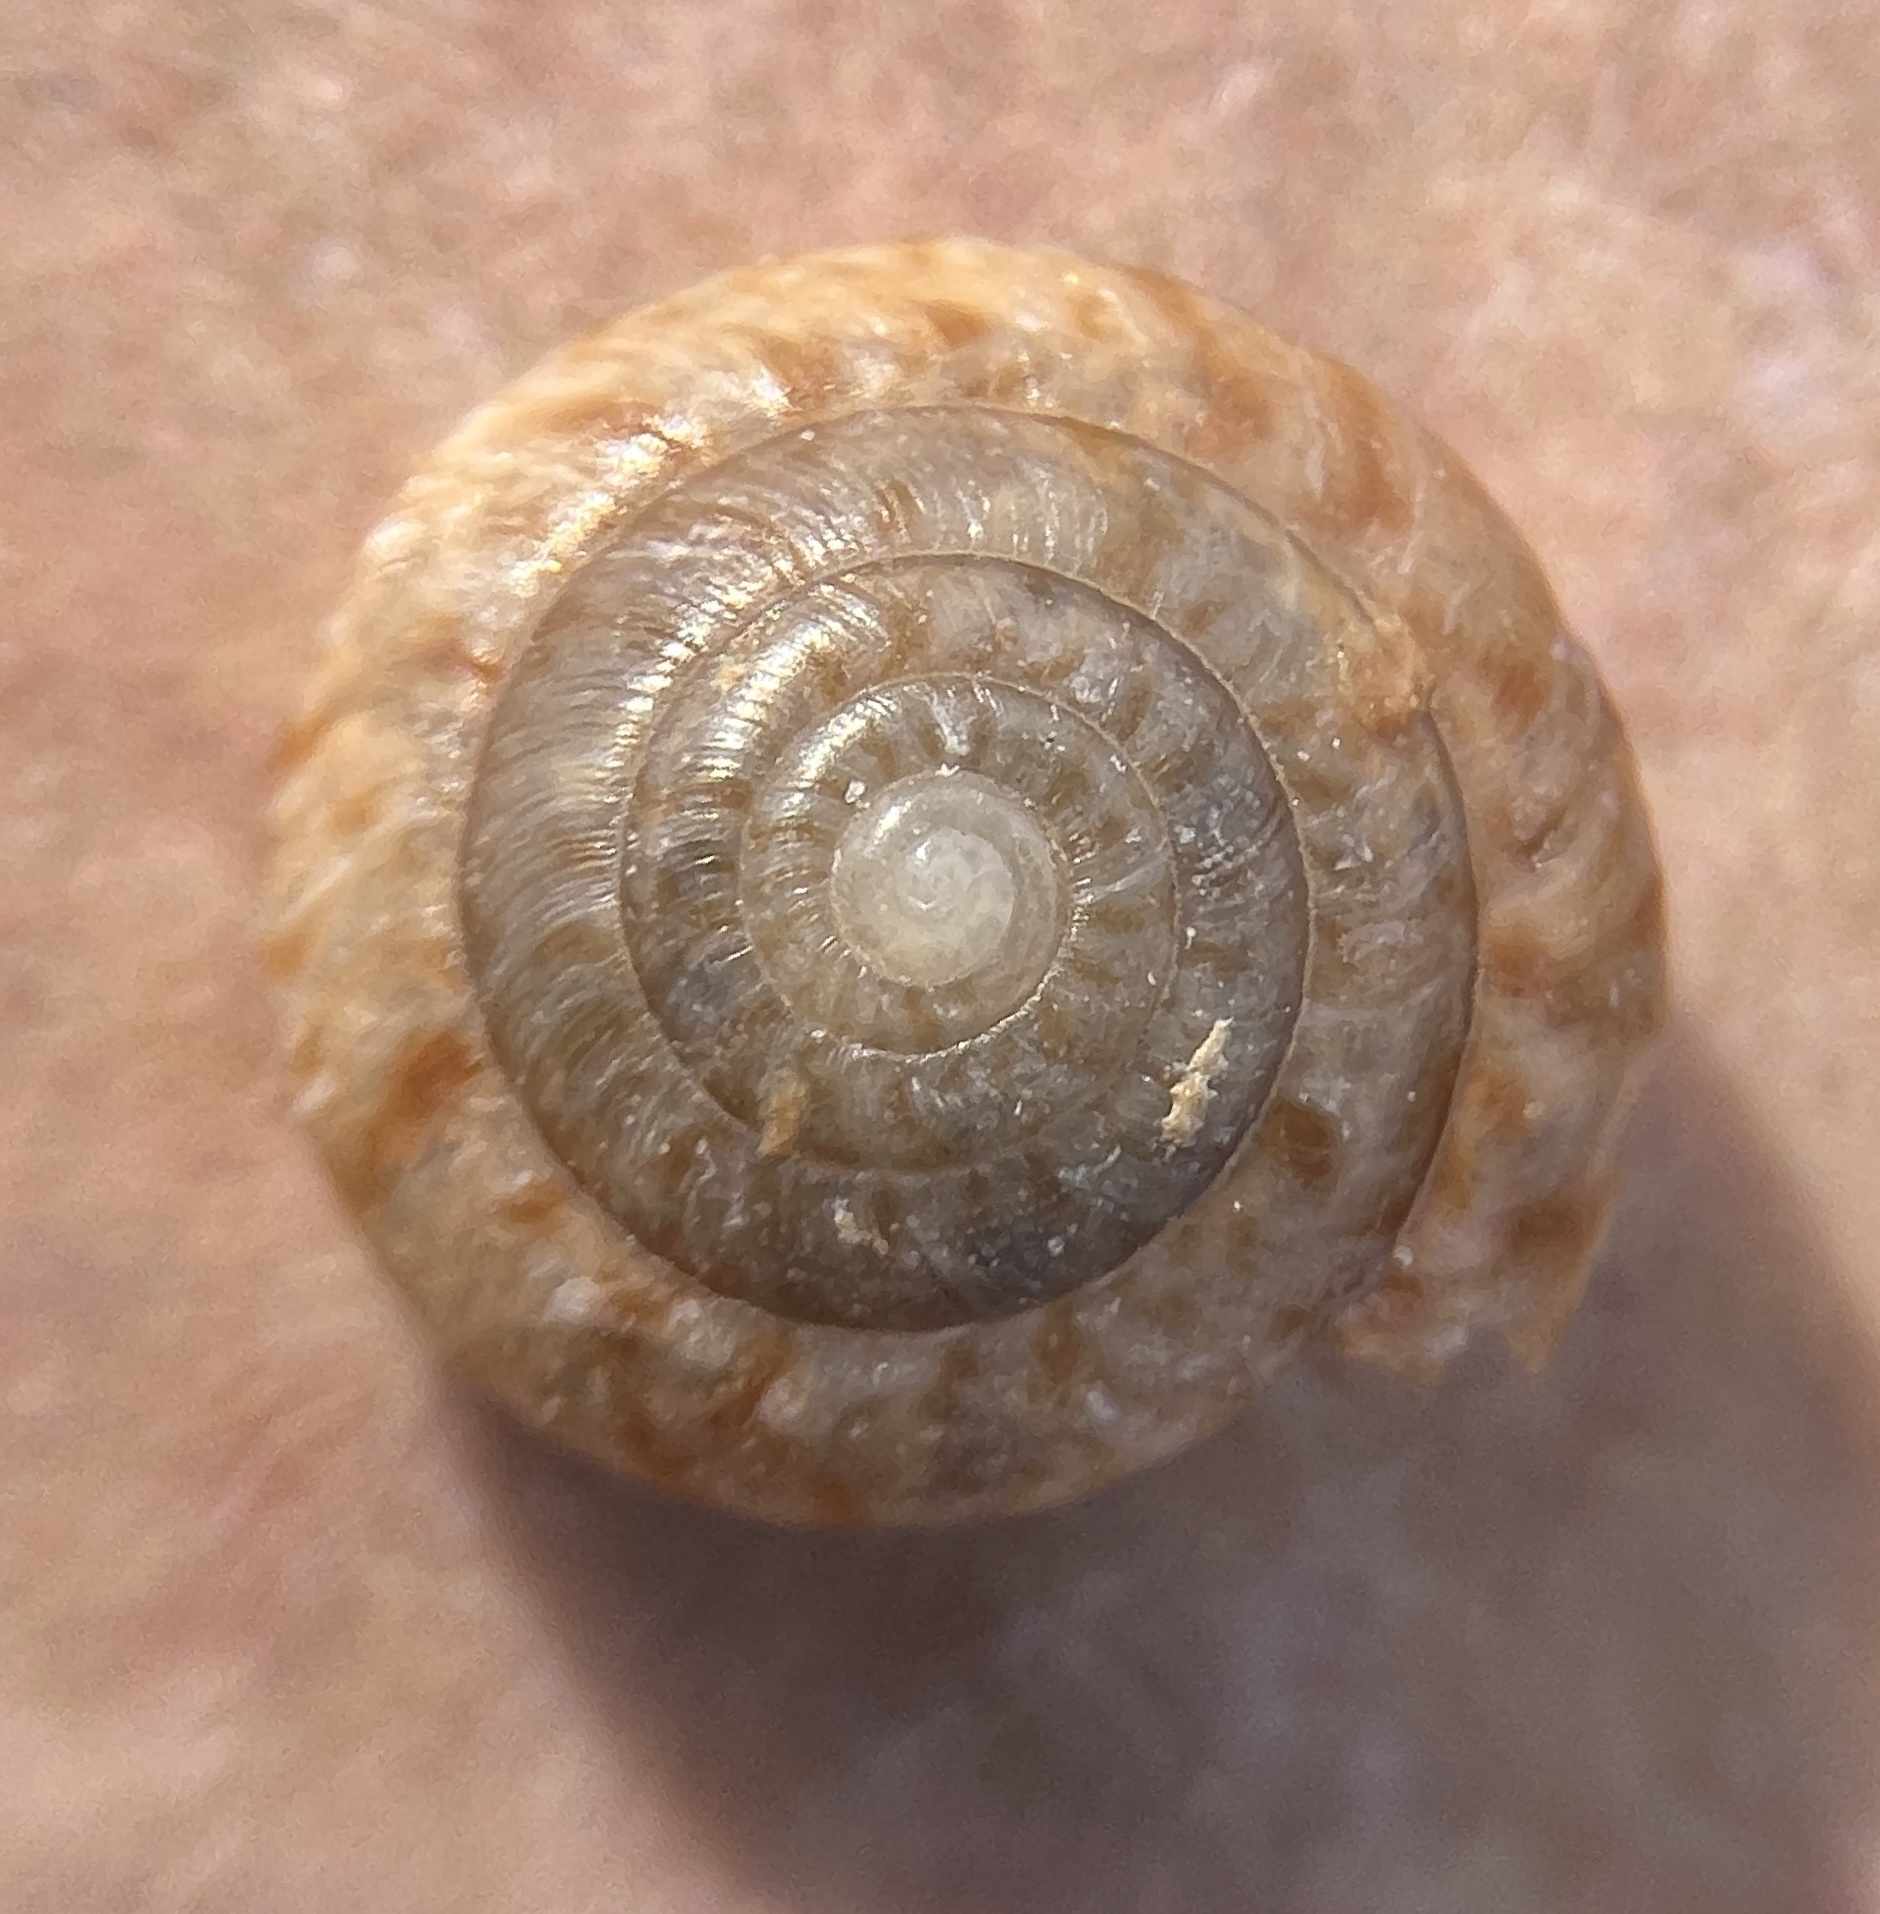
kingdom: Animalia
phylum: Mollusca
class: Gastropoda
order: Stylommatophora
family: Gastrodontidae
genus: Poecilozonites
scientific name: Poecilozonites bermudensis
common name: Greater bermuda land snail
